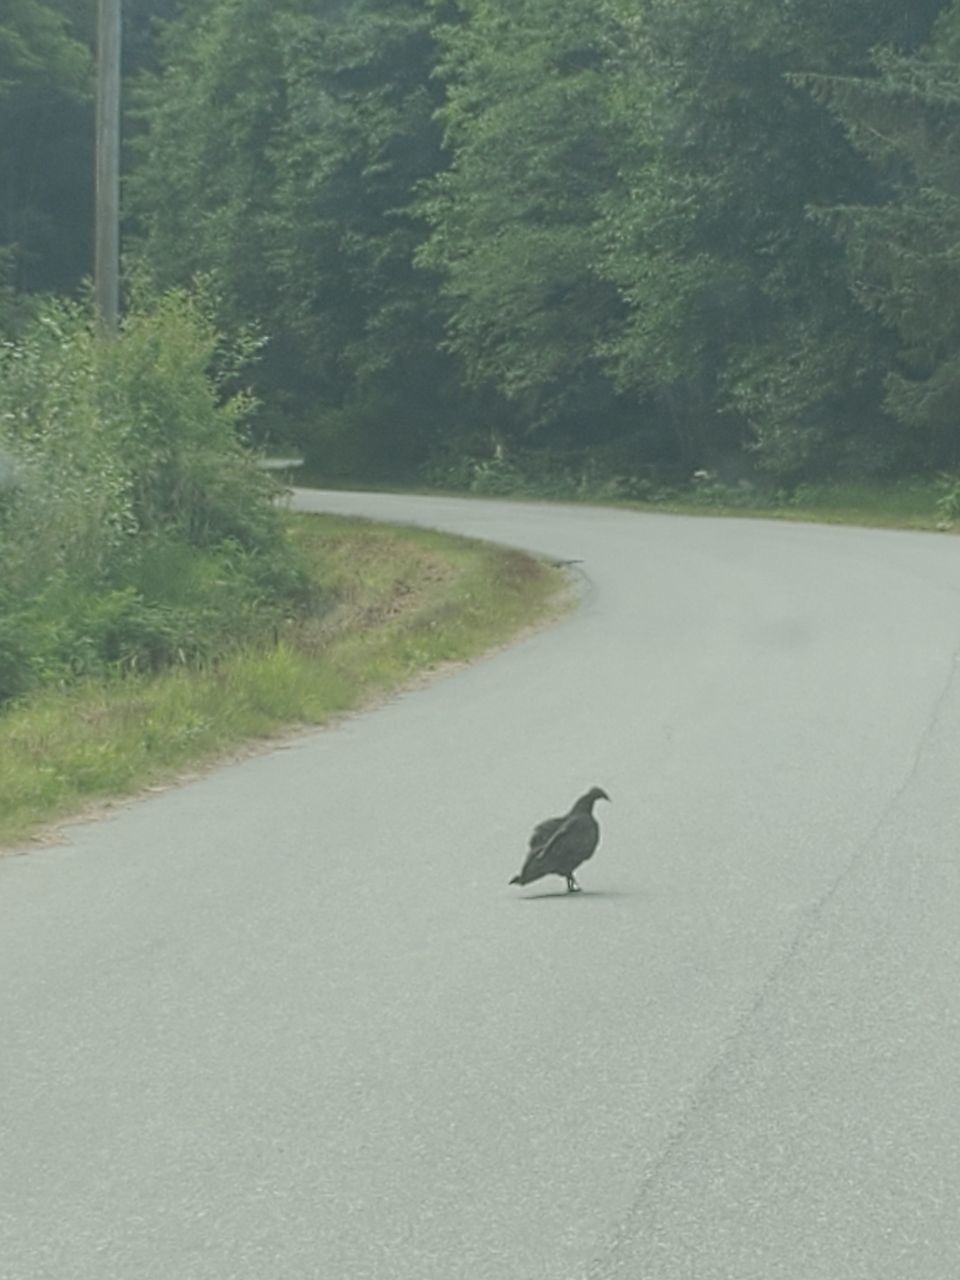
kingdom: Animalia
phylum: Chordata
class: Aves
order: Accipitriformes
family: Cathartidae
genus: Cathartes
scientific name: Cathartes aura
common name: Turkey vulture
